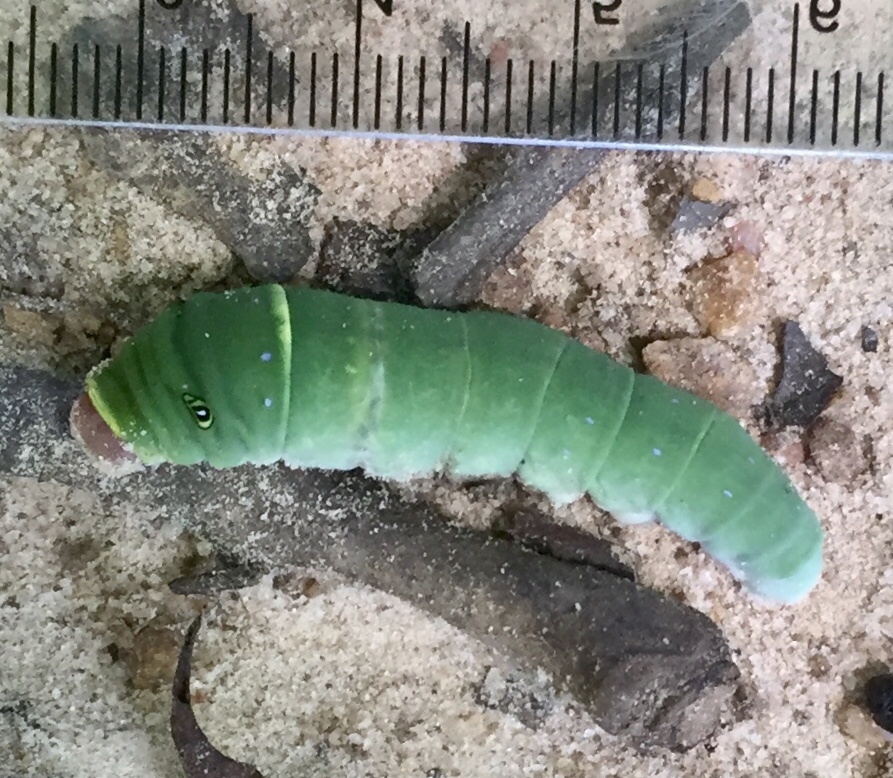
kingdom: Animalia
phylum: Arthropoda
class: Insecta
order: Lepidoptera
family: Papilionidae
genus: Papilio
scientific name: Papilio glaucus
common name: Tiger swallowtail
